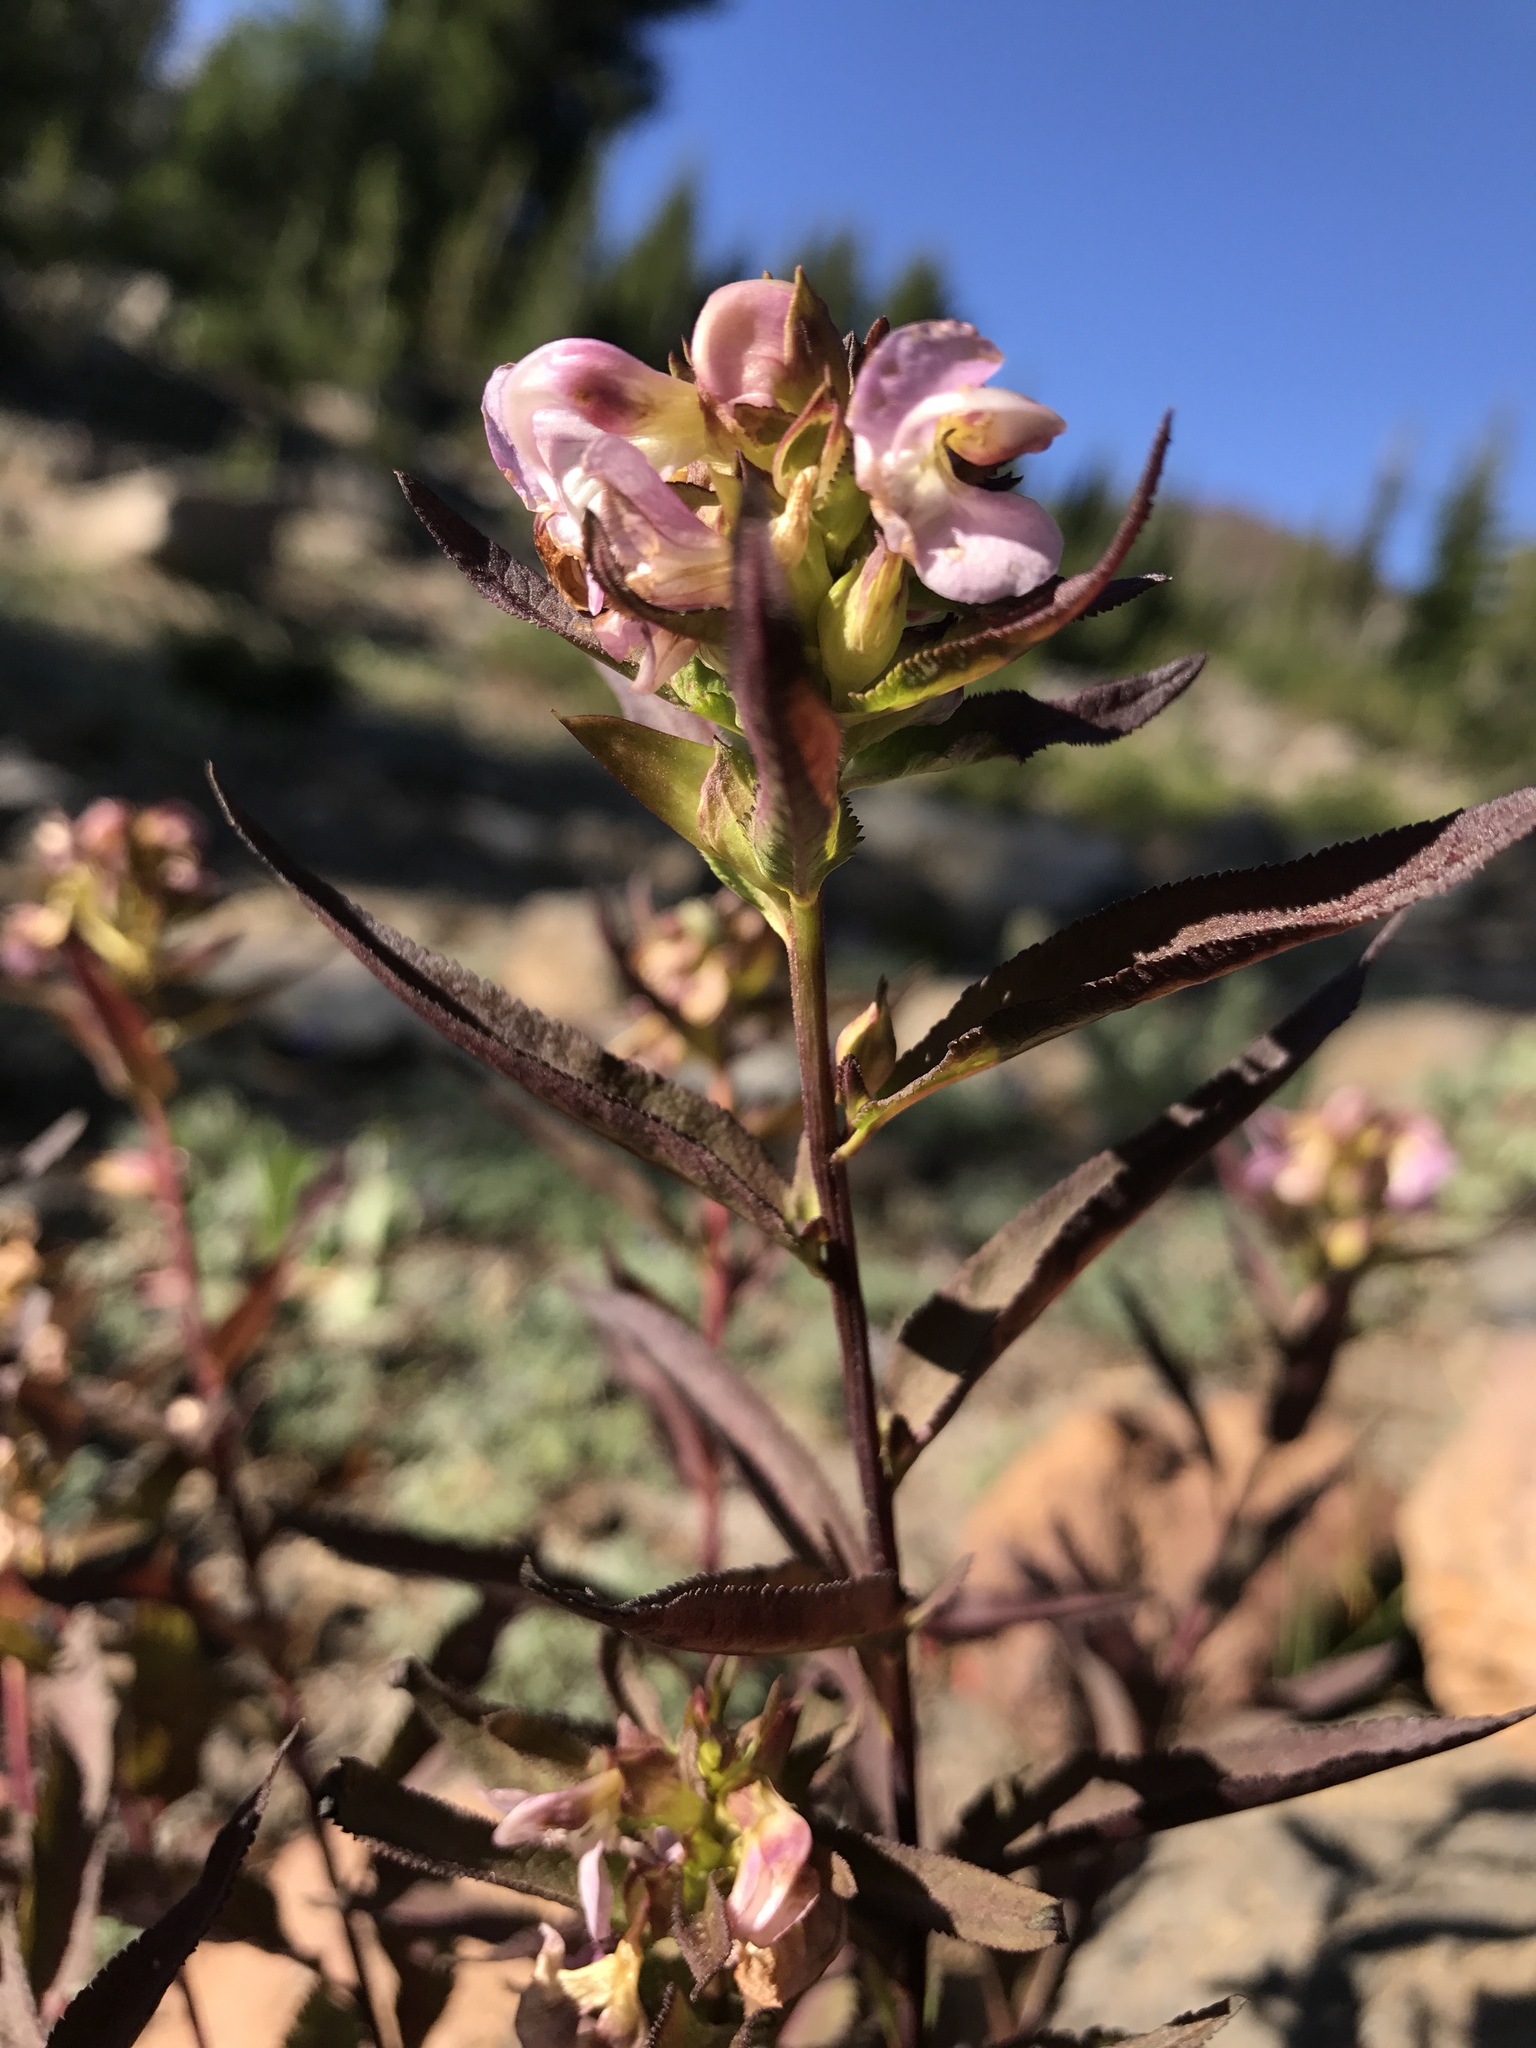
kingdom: Plantae
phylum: Tracheophyta
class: Magnoliopsida
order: Lamiales
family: Orobanchaceae
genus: Pedicularis
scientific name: Pedicularis racemosa
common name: Leafy lousewort
